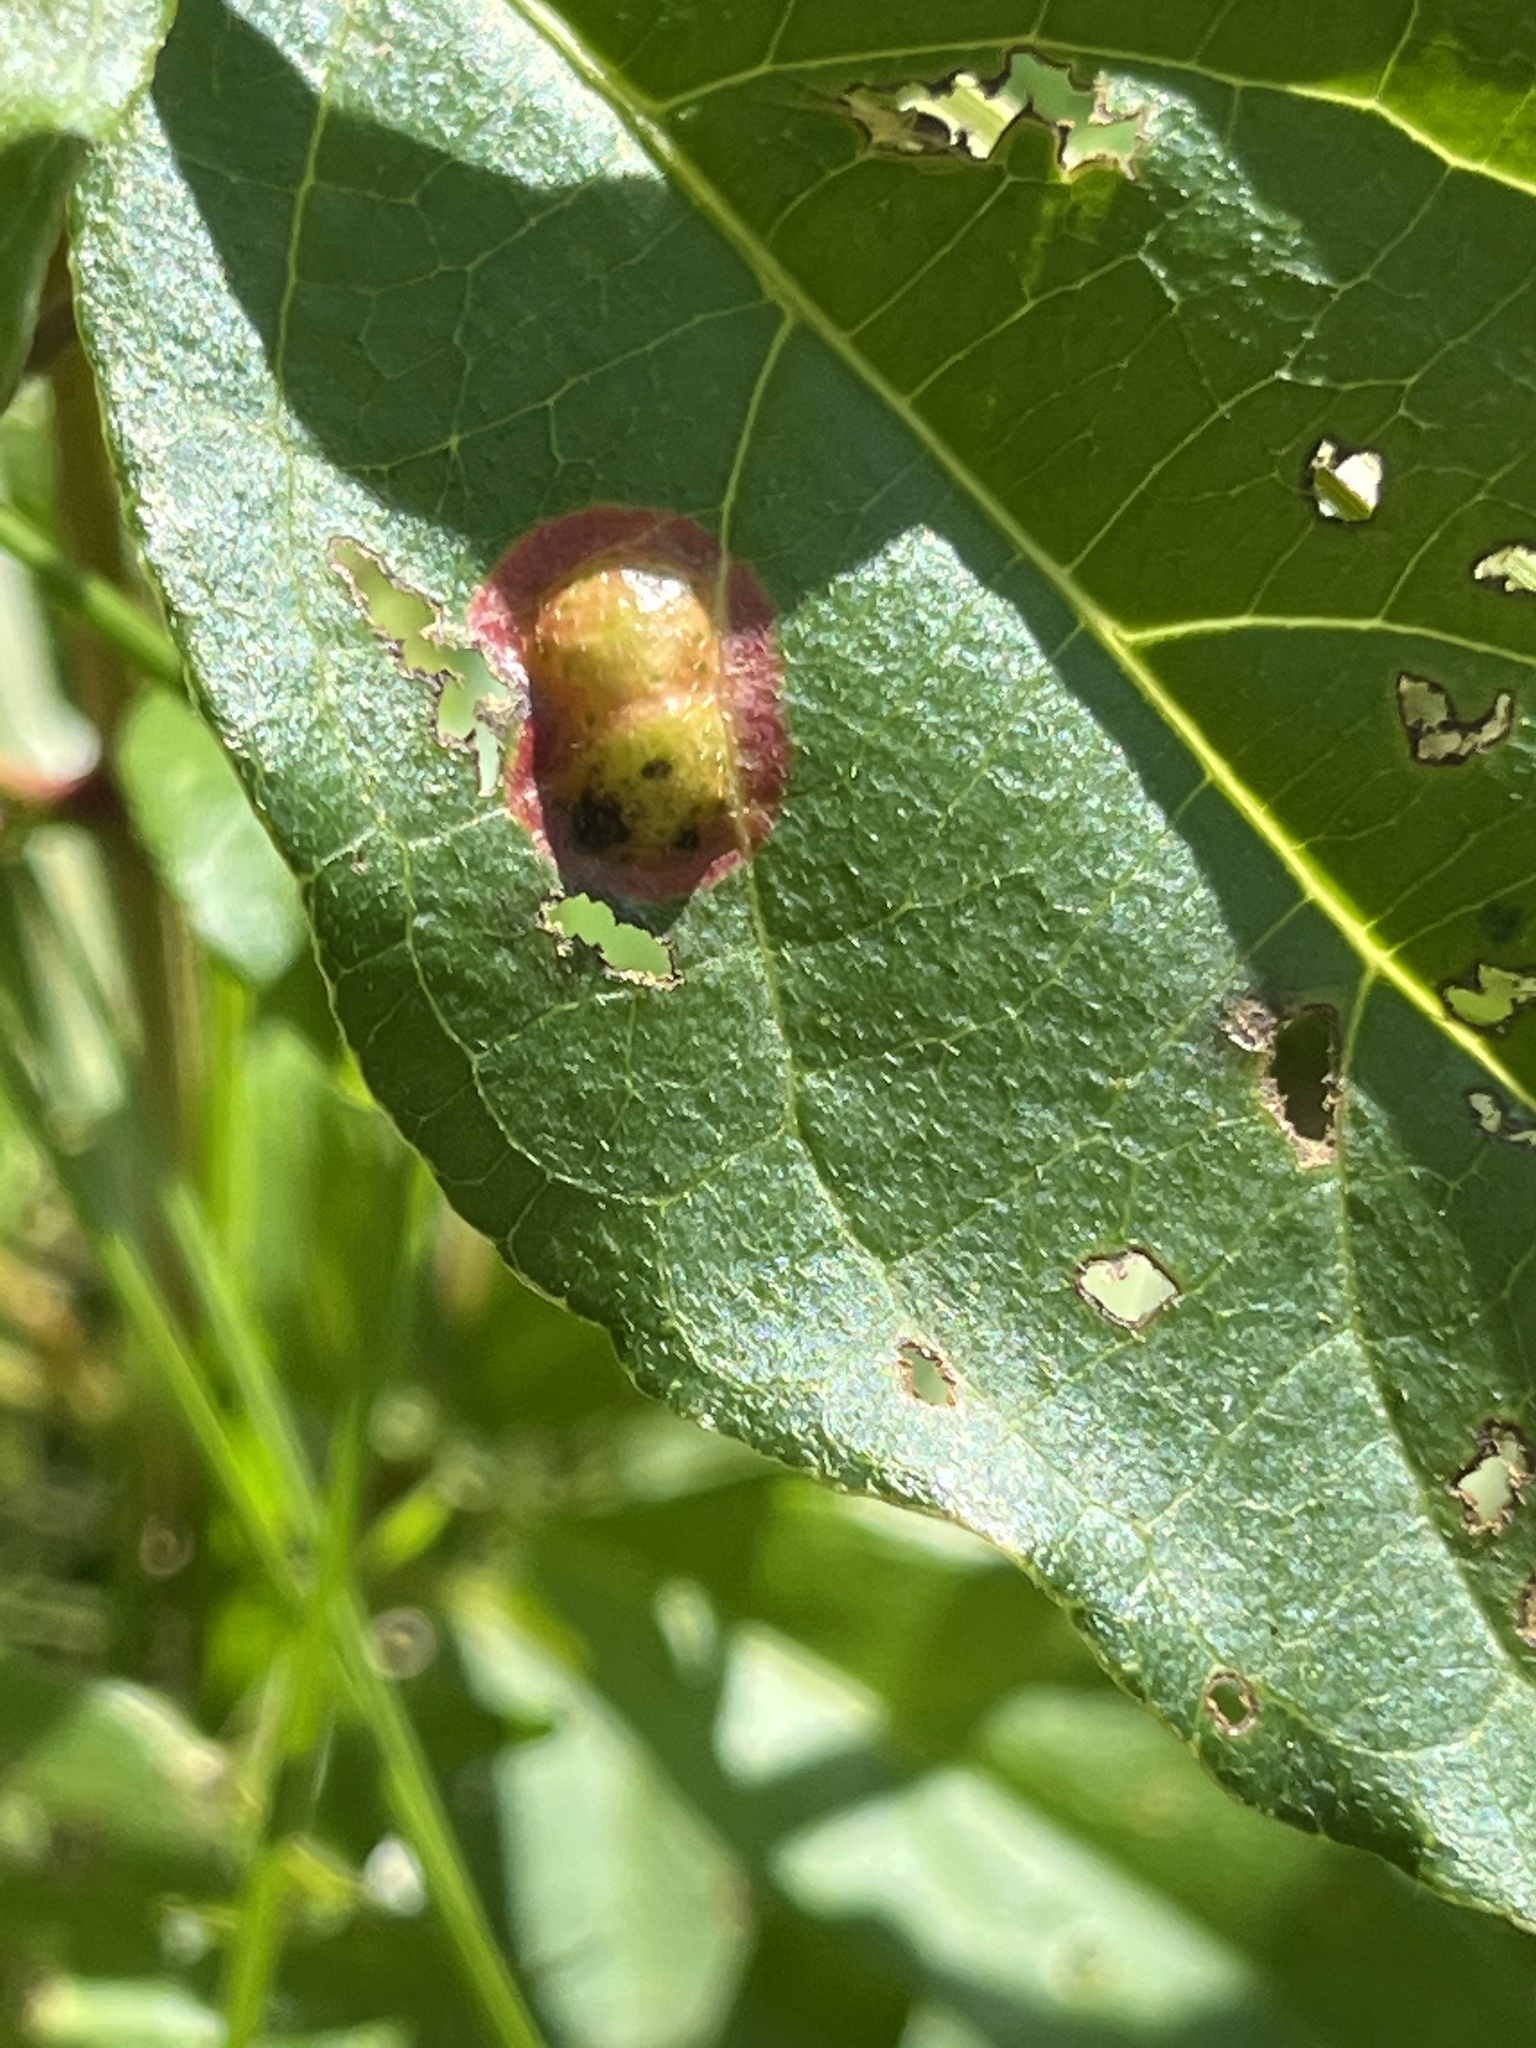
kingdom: Animalia
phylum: Arthropoda
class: Insecta
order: Diptera
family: Cecidomyiidae
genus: Parallelodiplosis
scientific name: Parallelodiplosis subtruncata
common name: Dogwood eyespot gall midge
